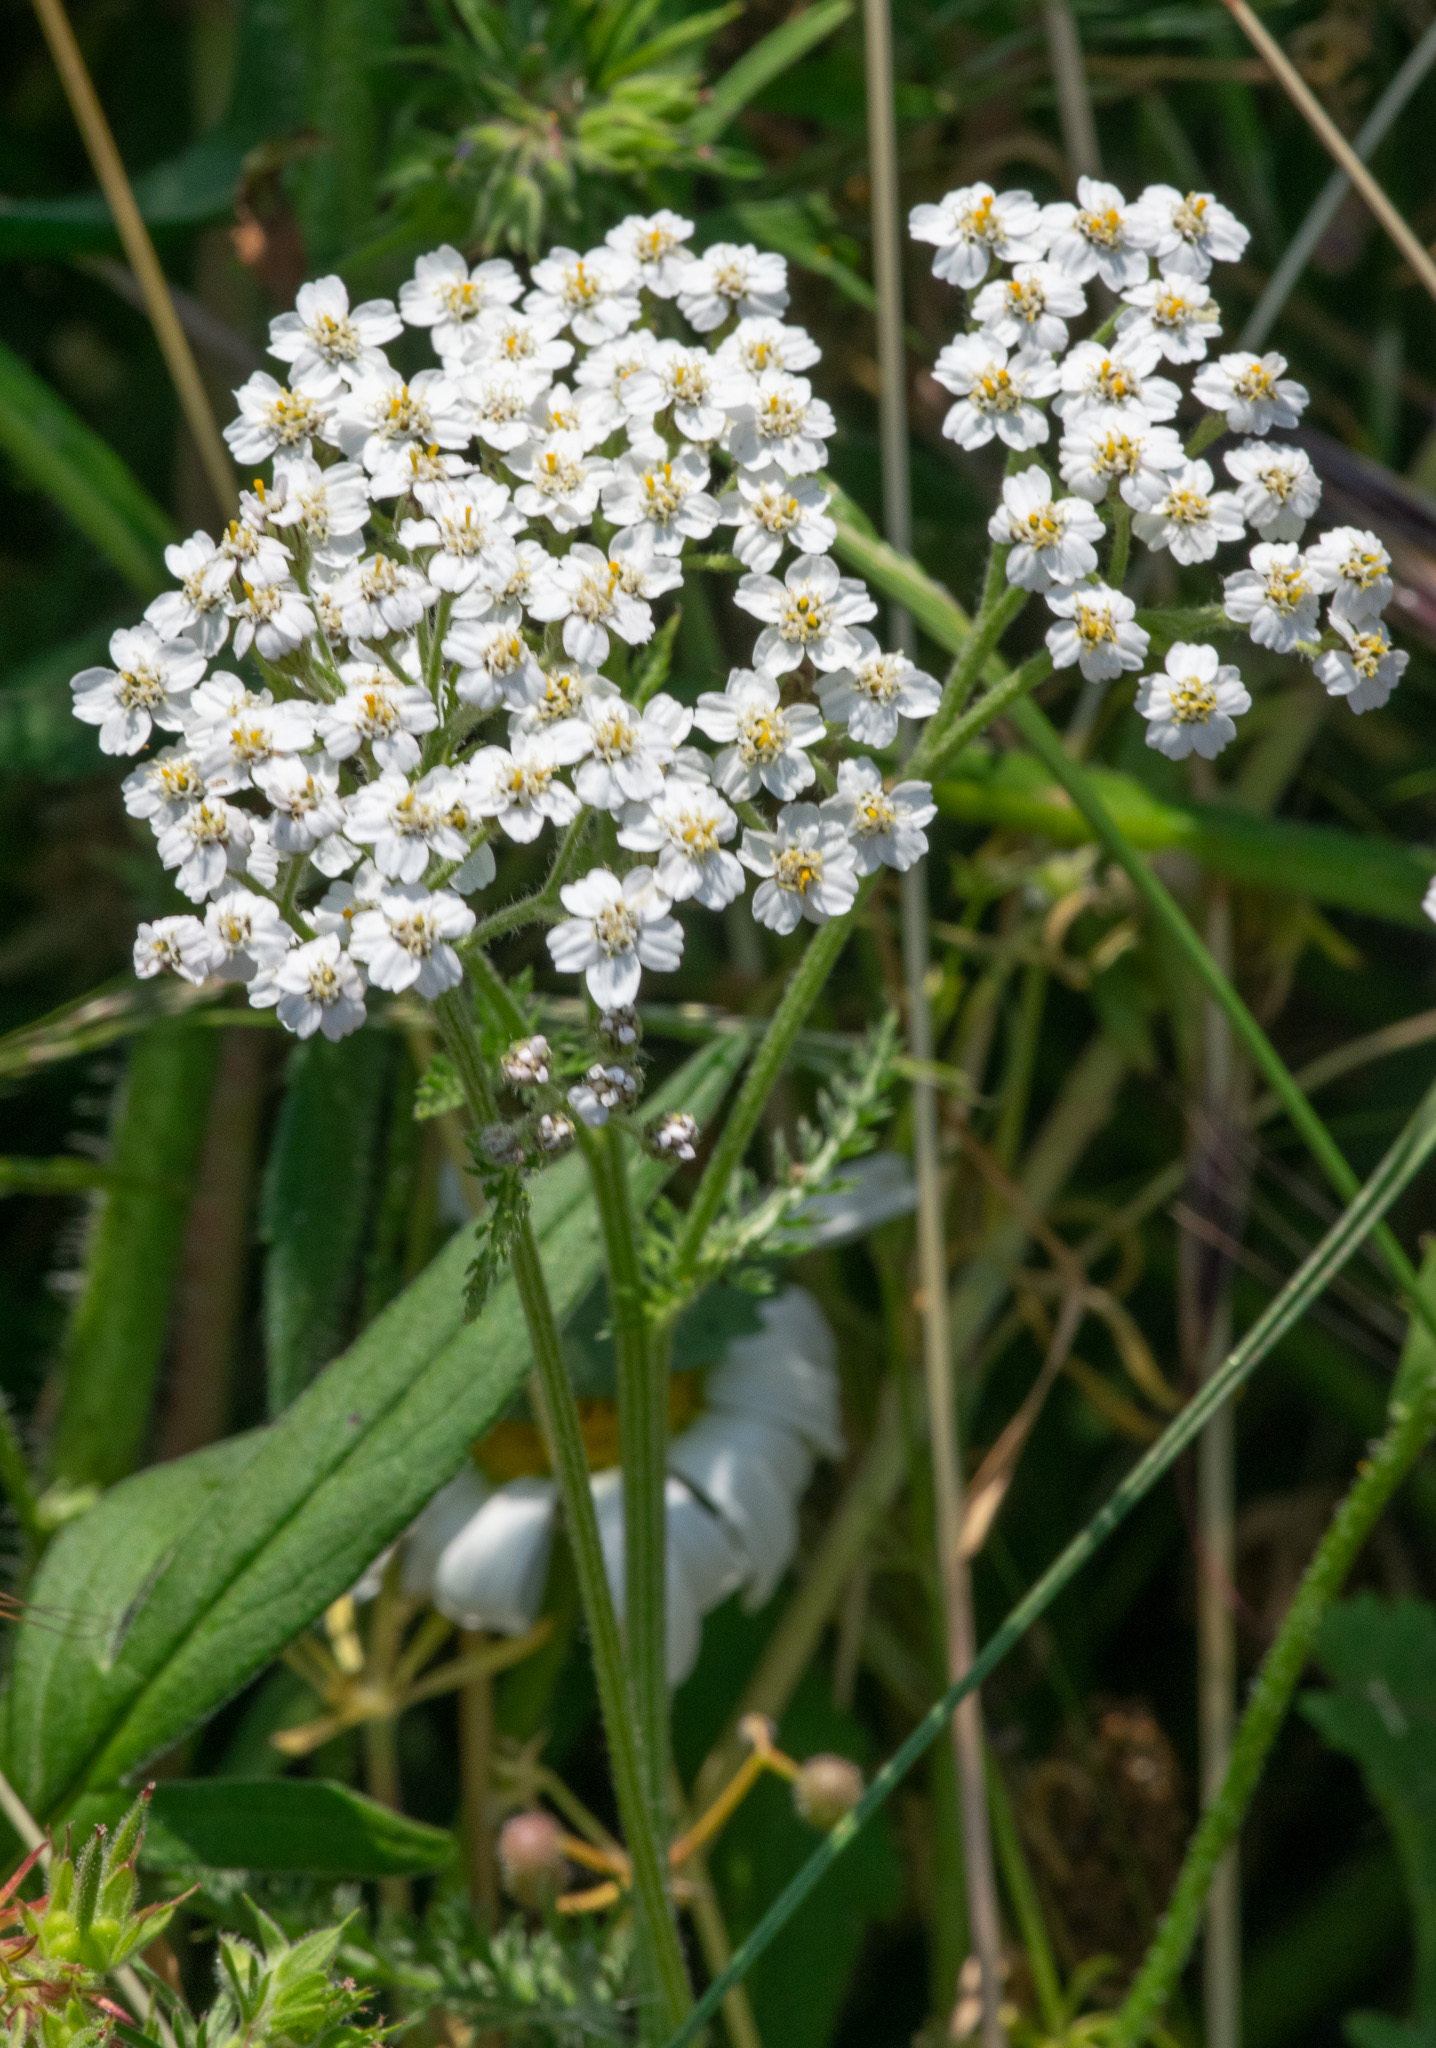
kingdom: Plantae
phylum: Tracheophyta
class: Magnoliopsida
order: Asterales
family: Asteraceae
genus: Achillea
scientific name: Achillea millefolium
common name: Yarrow
